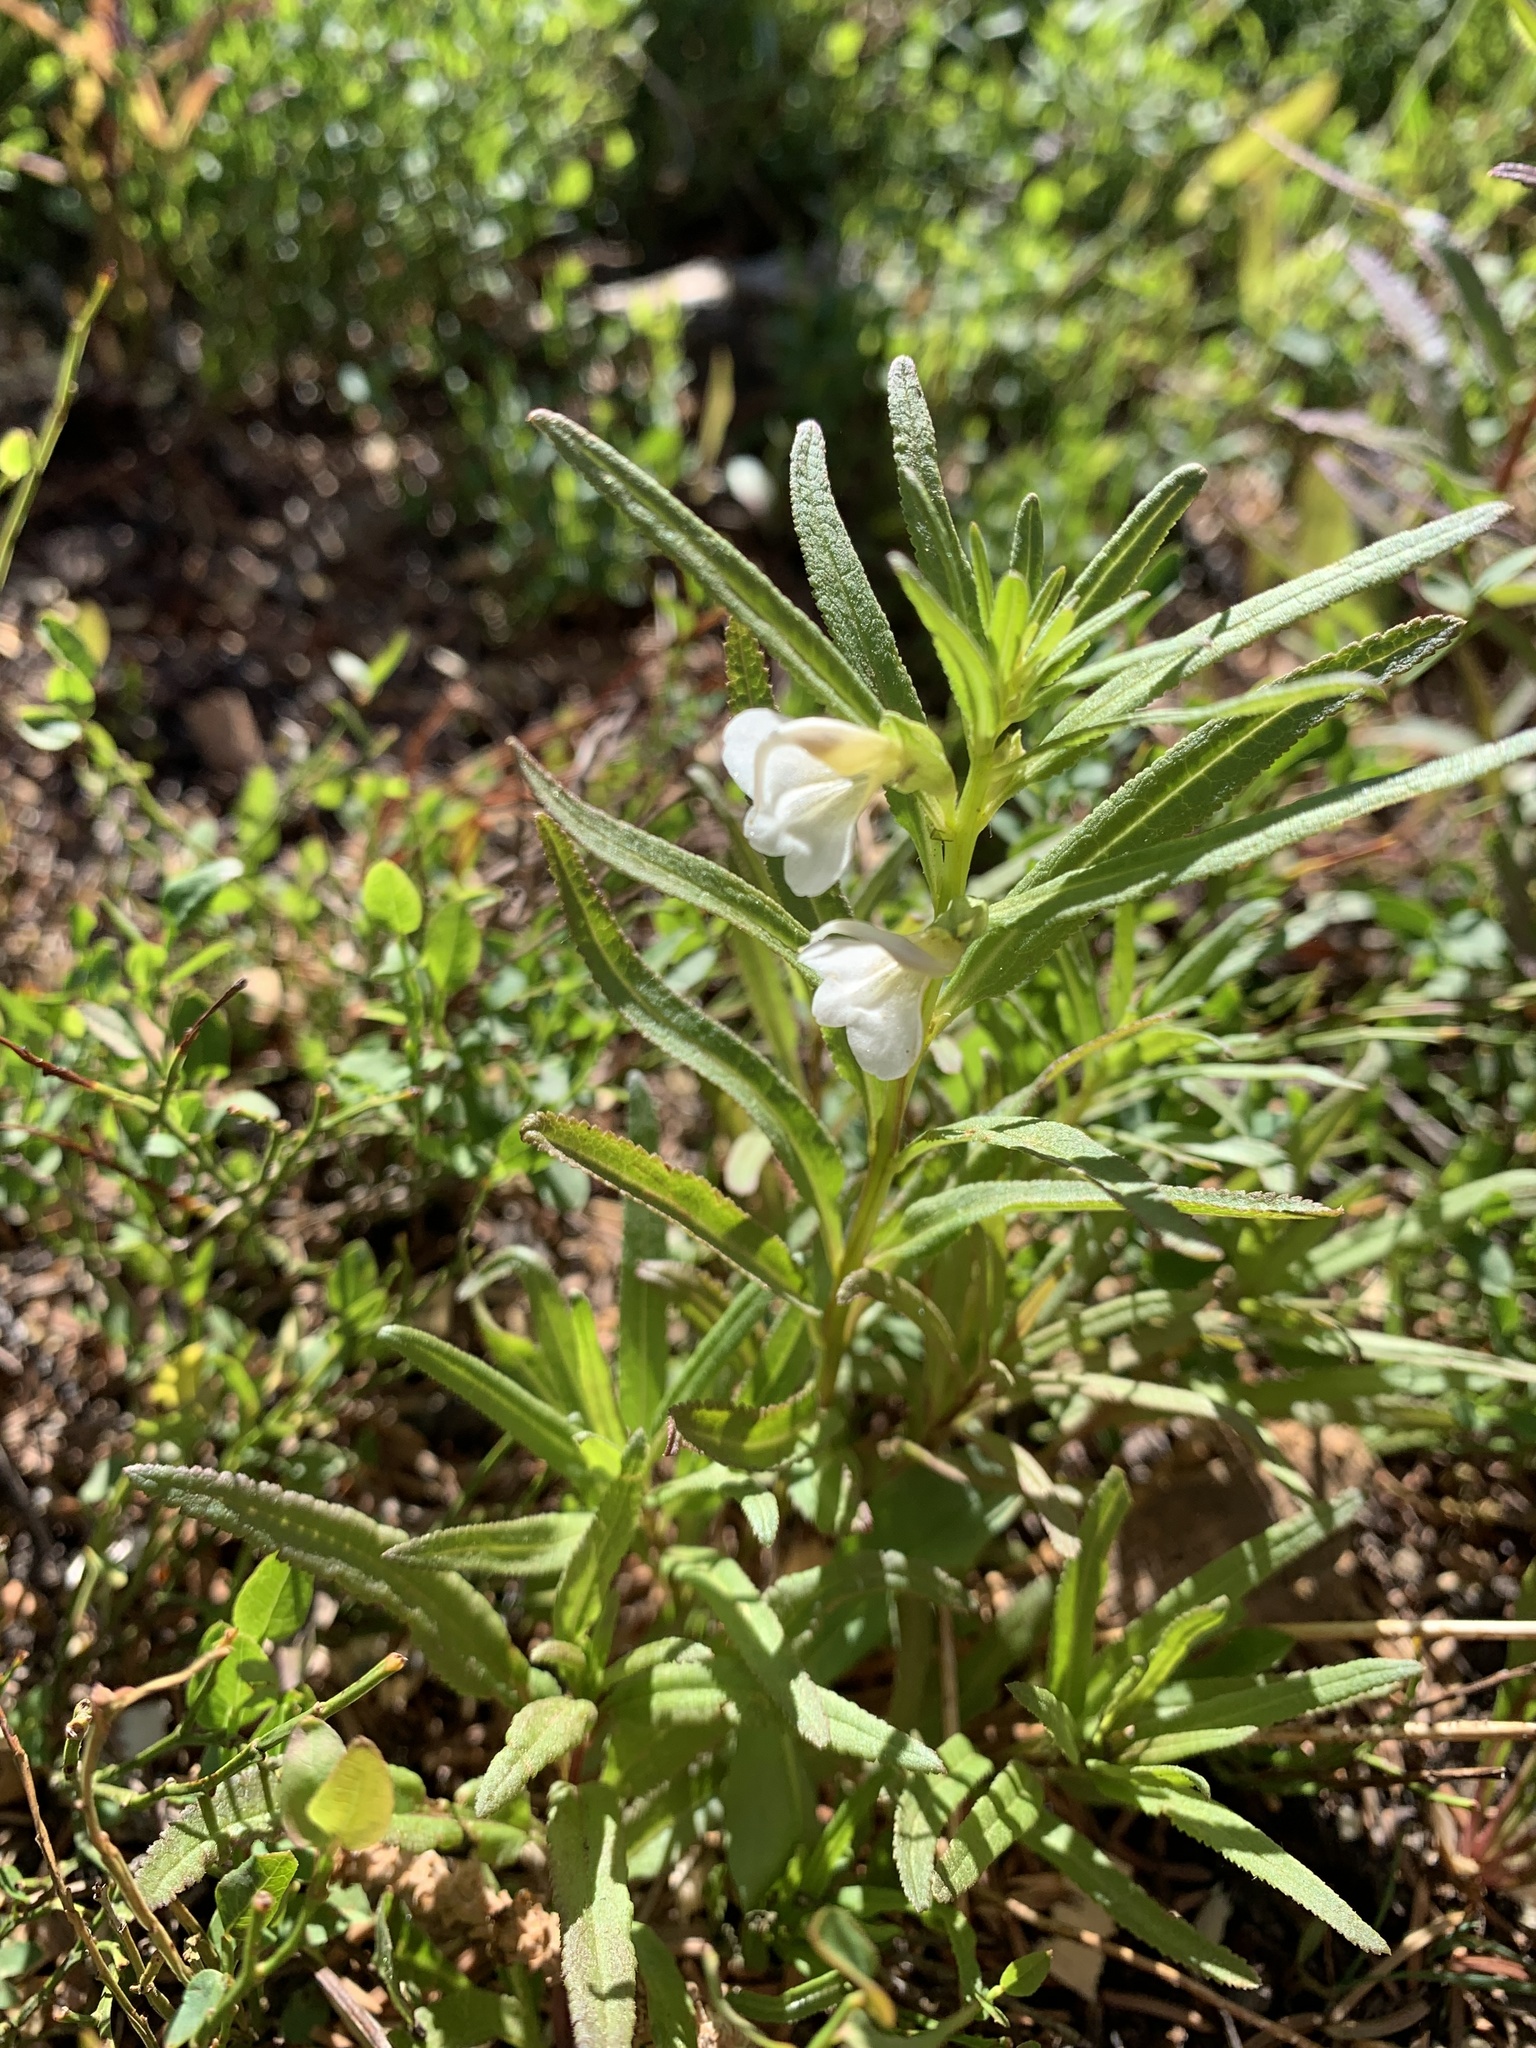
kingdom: Plantae
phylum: Tracheophyta
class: Magnoliopsida
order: Lamiales
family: Orobanchaceae
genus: Pedicularis
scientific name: Pedicularis racemosa
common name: Leafy lousewort
